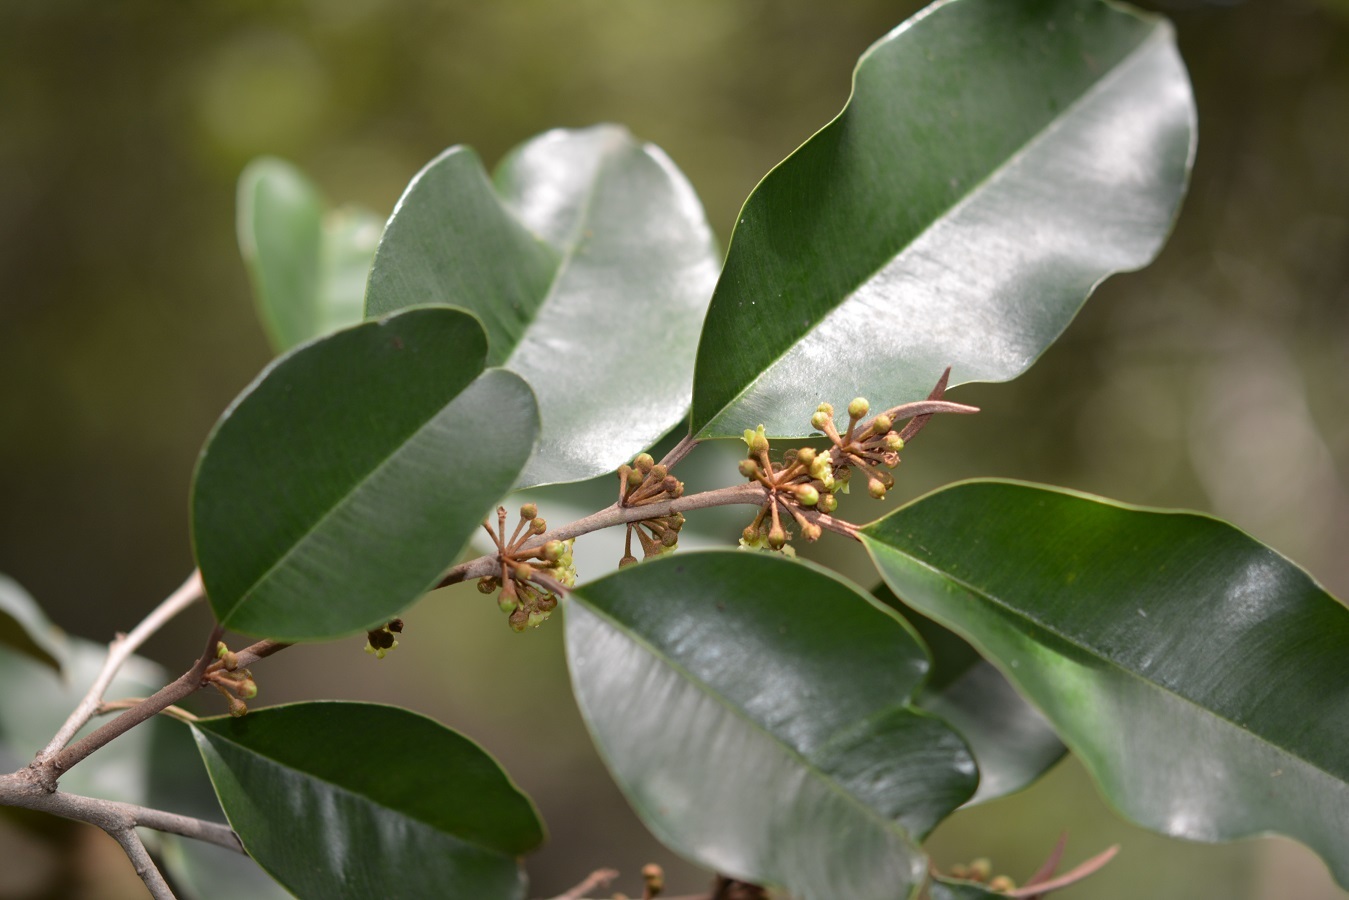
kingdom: Plantae
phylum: Tracheophyta
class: Magnoliopsida
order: Ericales
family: Sapotaceae
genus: Chrysophyllum
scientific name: Chrysophyllum mexicanum
